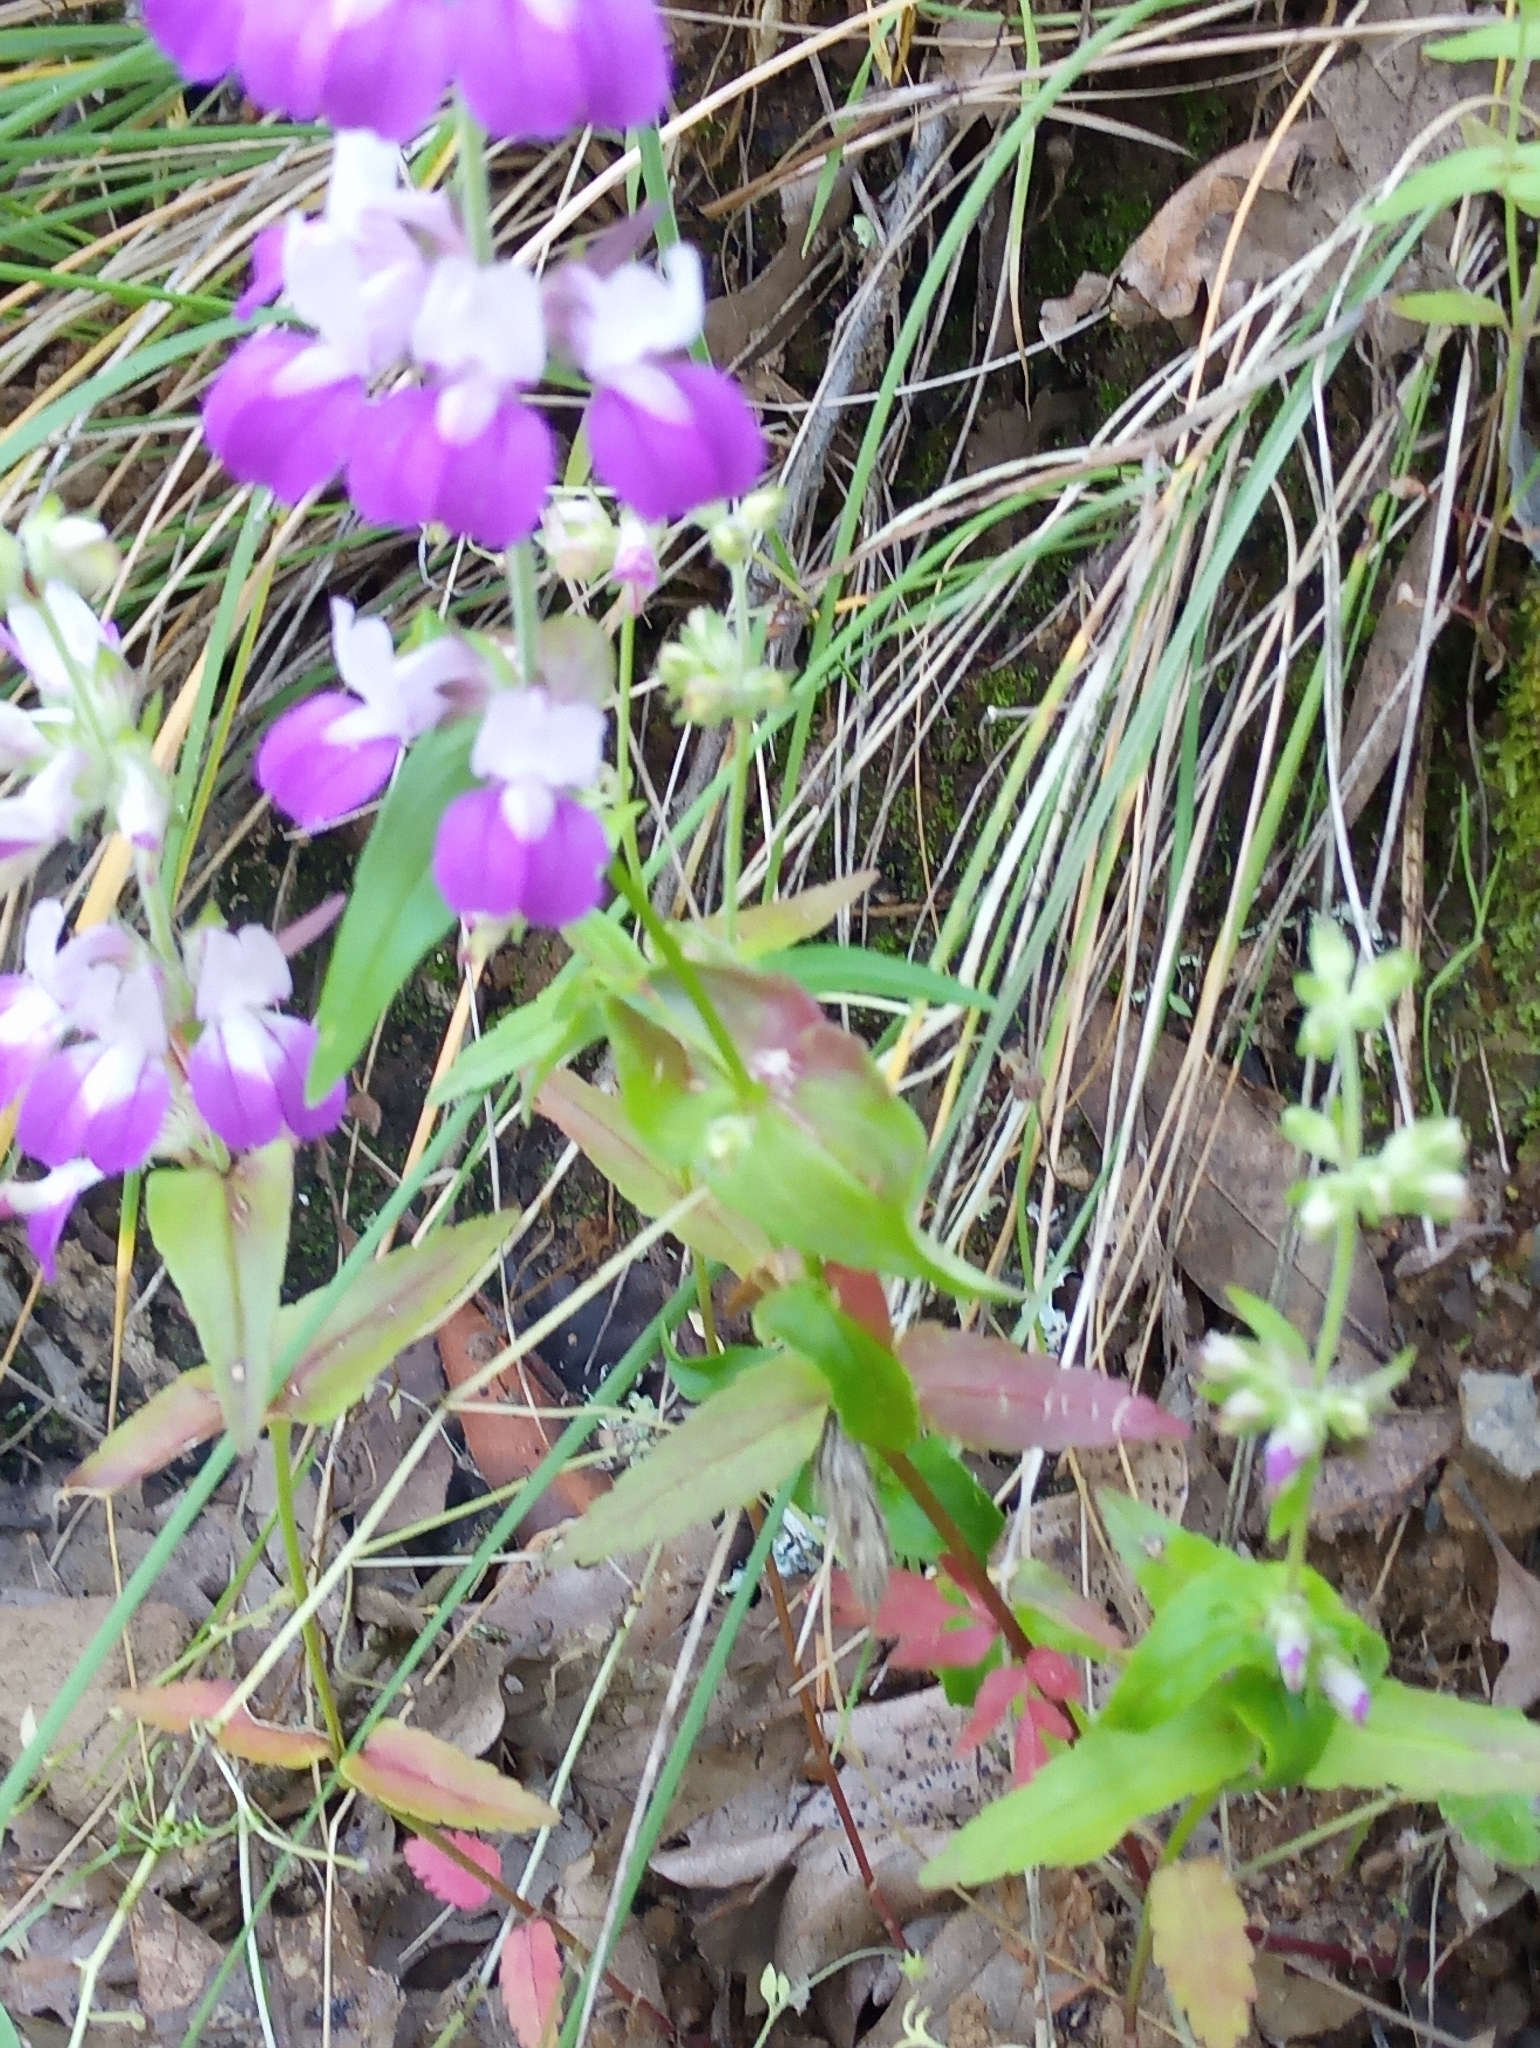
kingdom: Plantae
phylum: Tracheophyta
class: Magnoliopsida
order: Lamiales
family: Plantaginaceae
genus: Collinsia
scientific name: Collinsia heterophylla
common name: Chinese-houses
